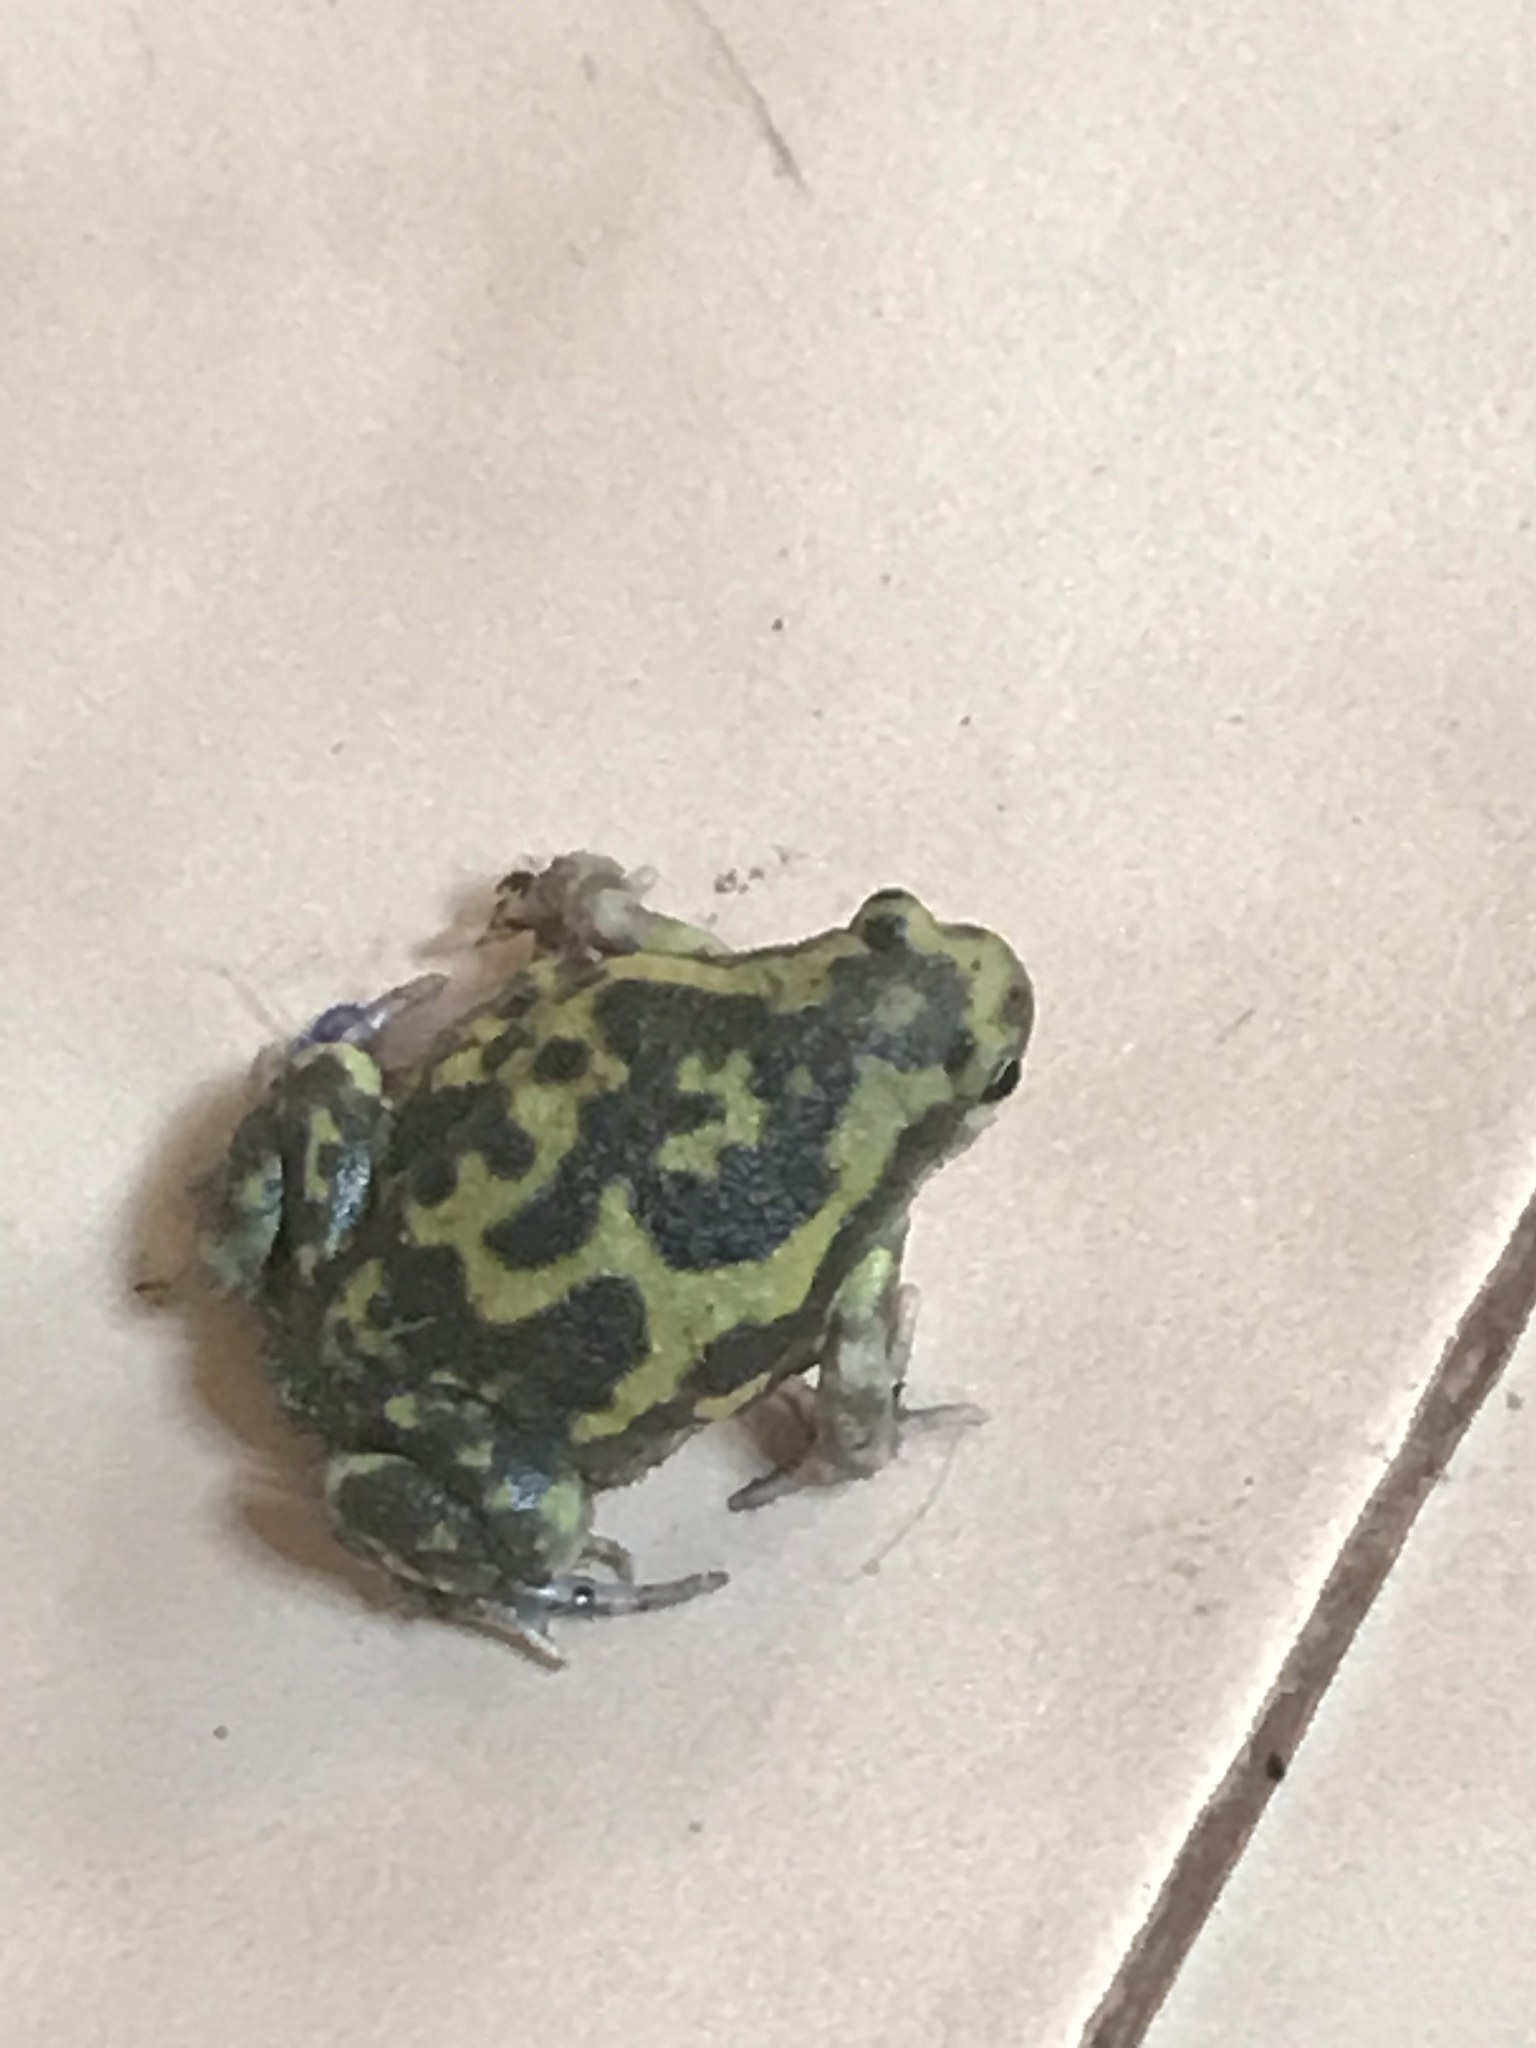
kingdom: Animalia
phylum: Chordata
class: Amphibia
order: Anura
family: Microhylidae
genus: Uperodon
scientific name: Uperodon variegatus
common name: Eluru dot frog
